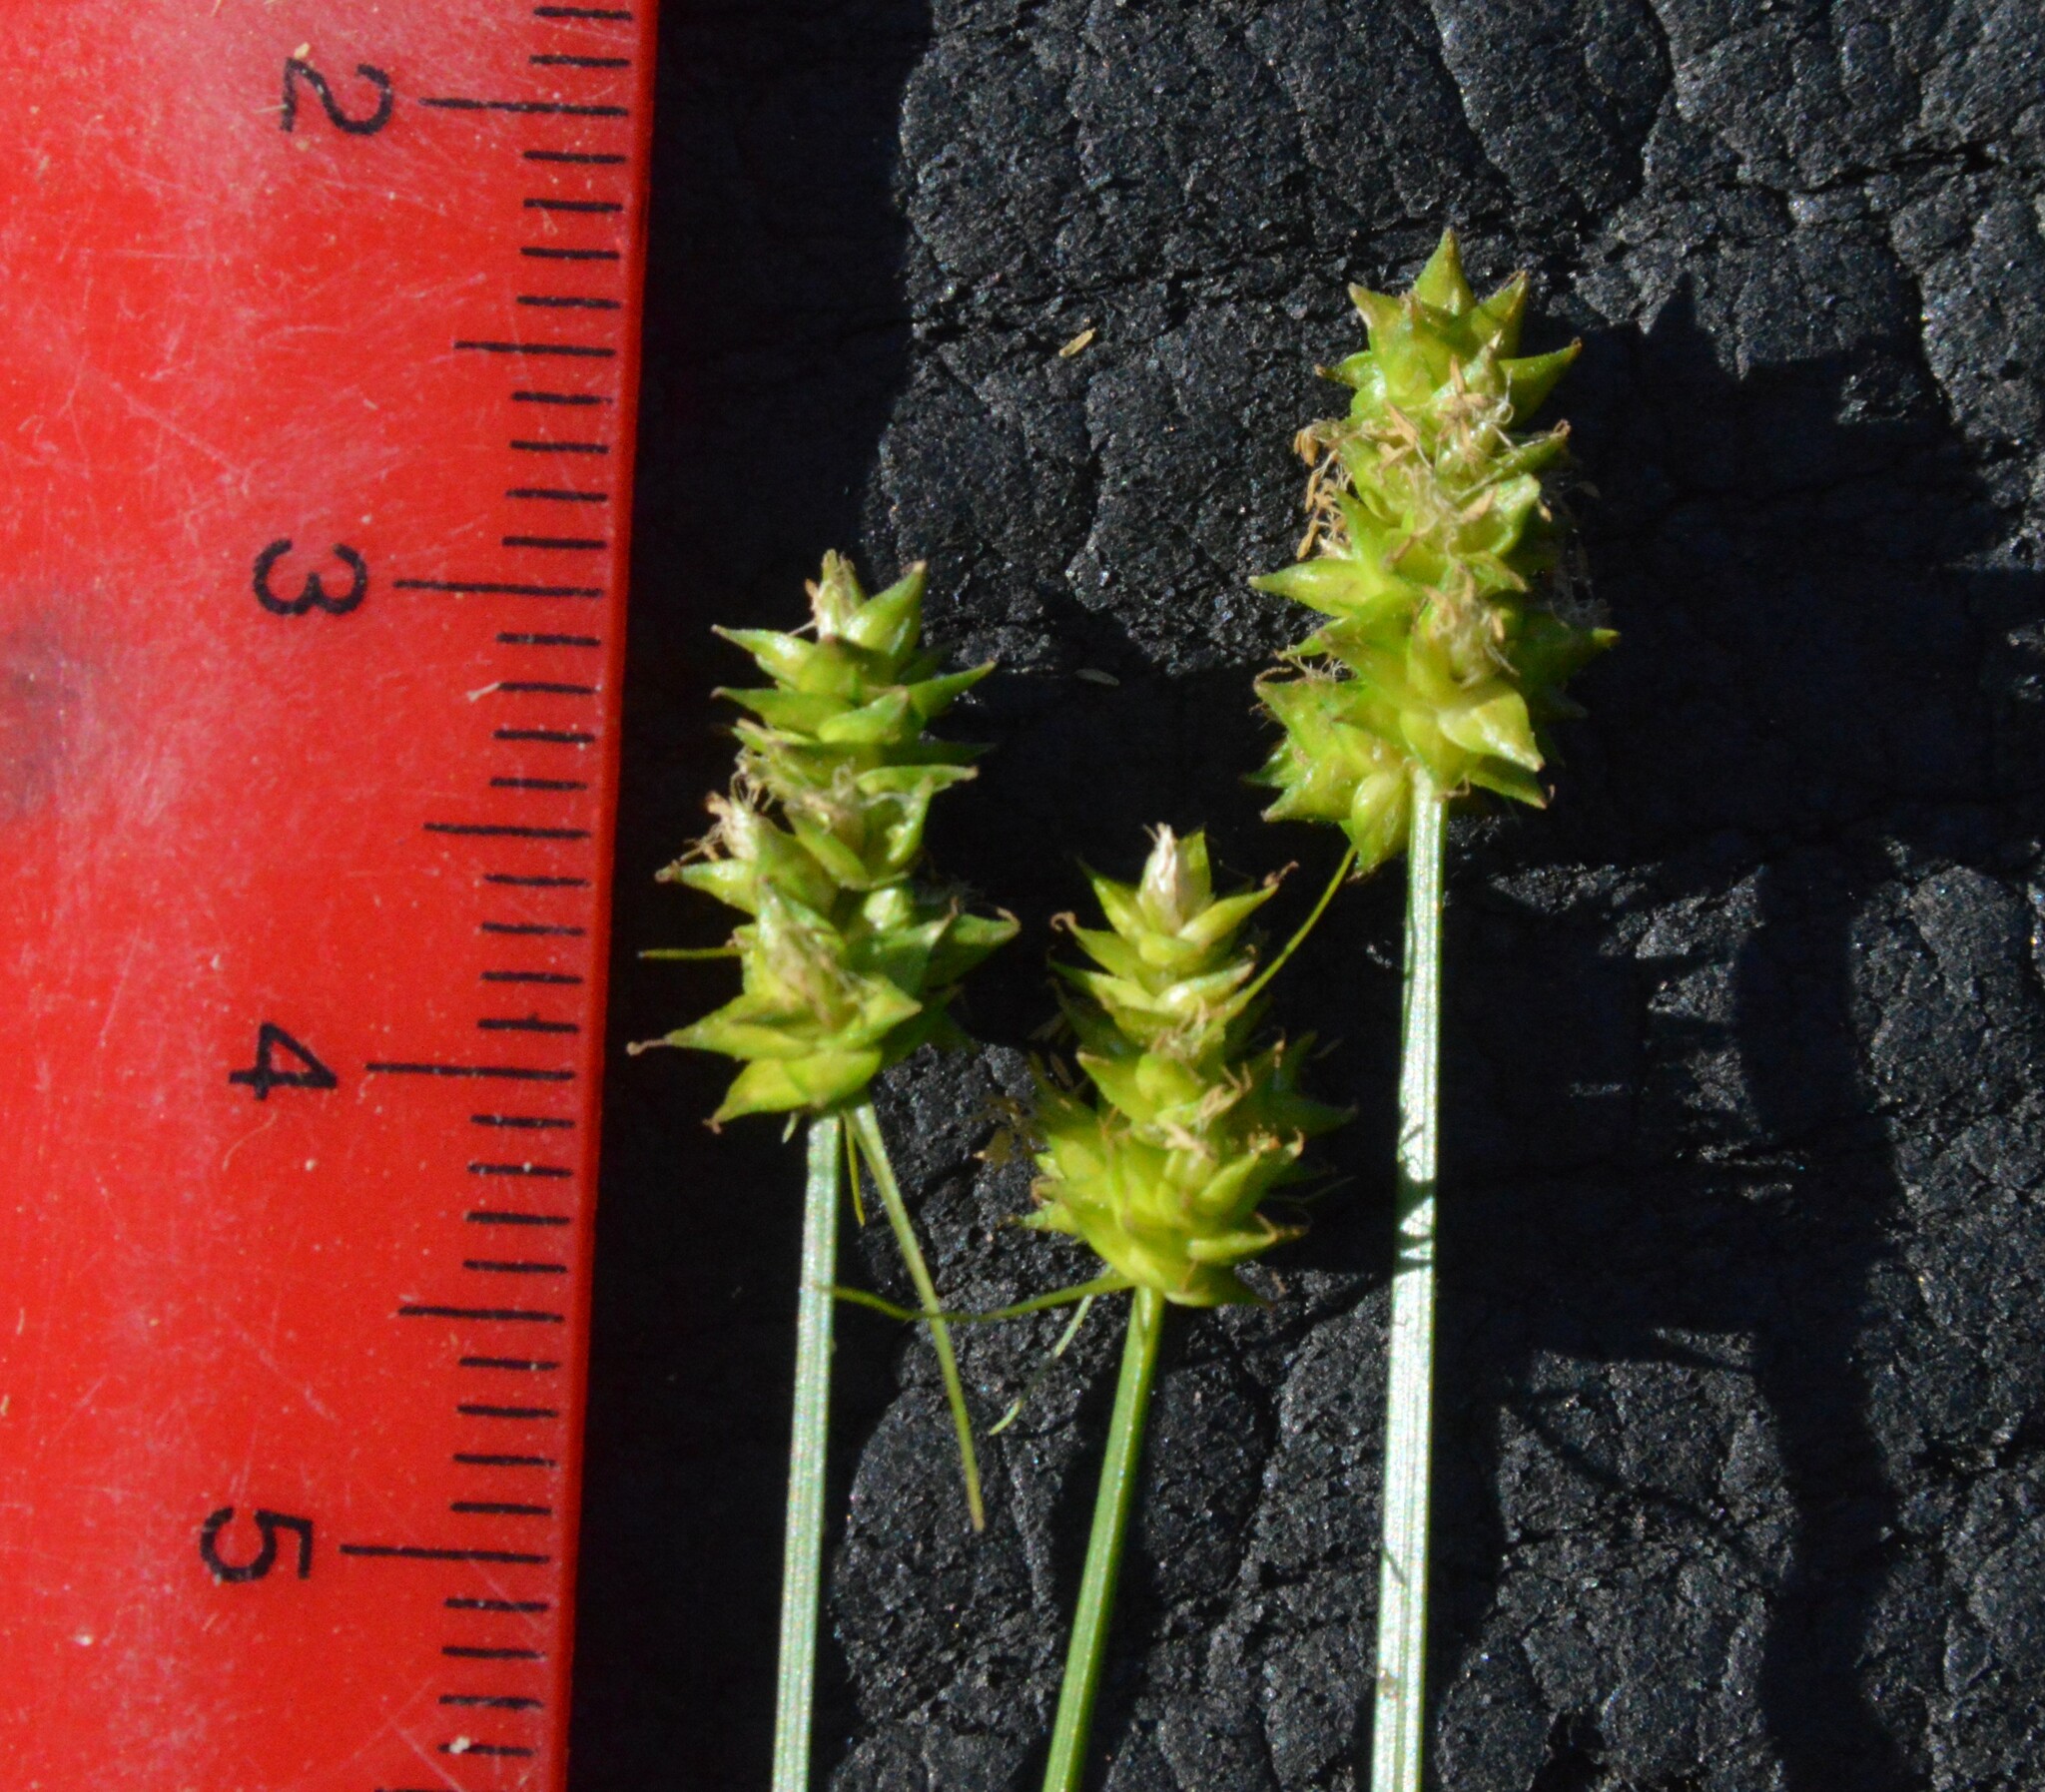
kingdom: Plantae
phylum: Tracheophyta
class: Liliopsida
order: Poales
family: Cyperaceae
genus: Carex
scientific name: Carex leavenworthii
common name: Leavenworth's bracted sedge
